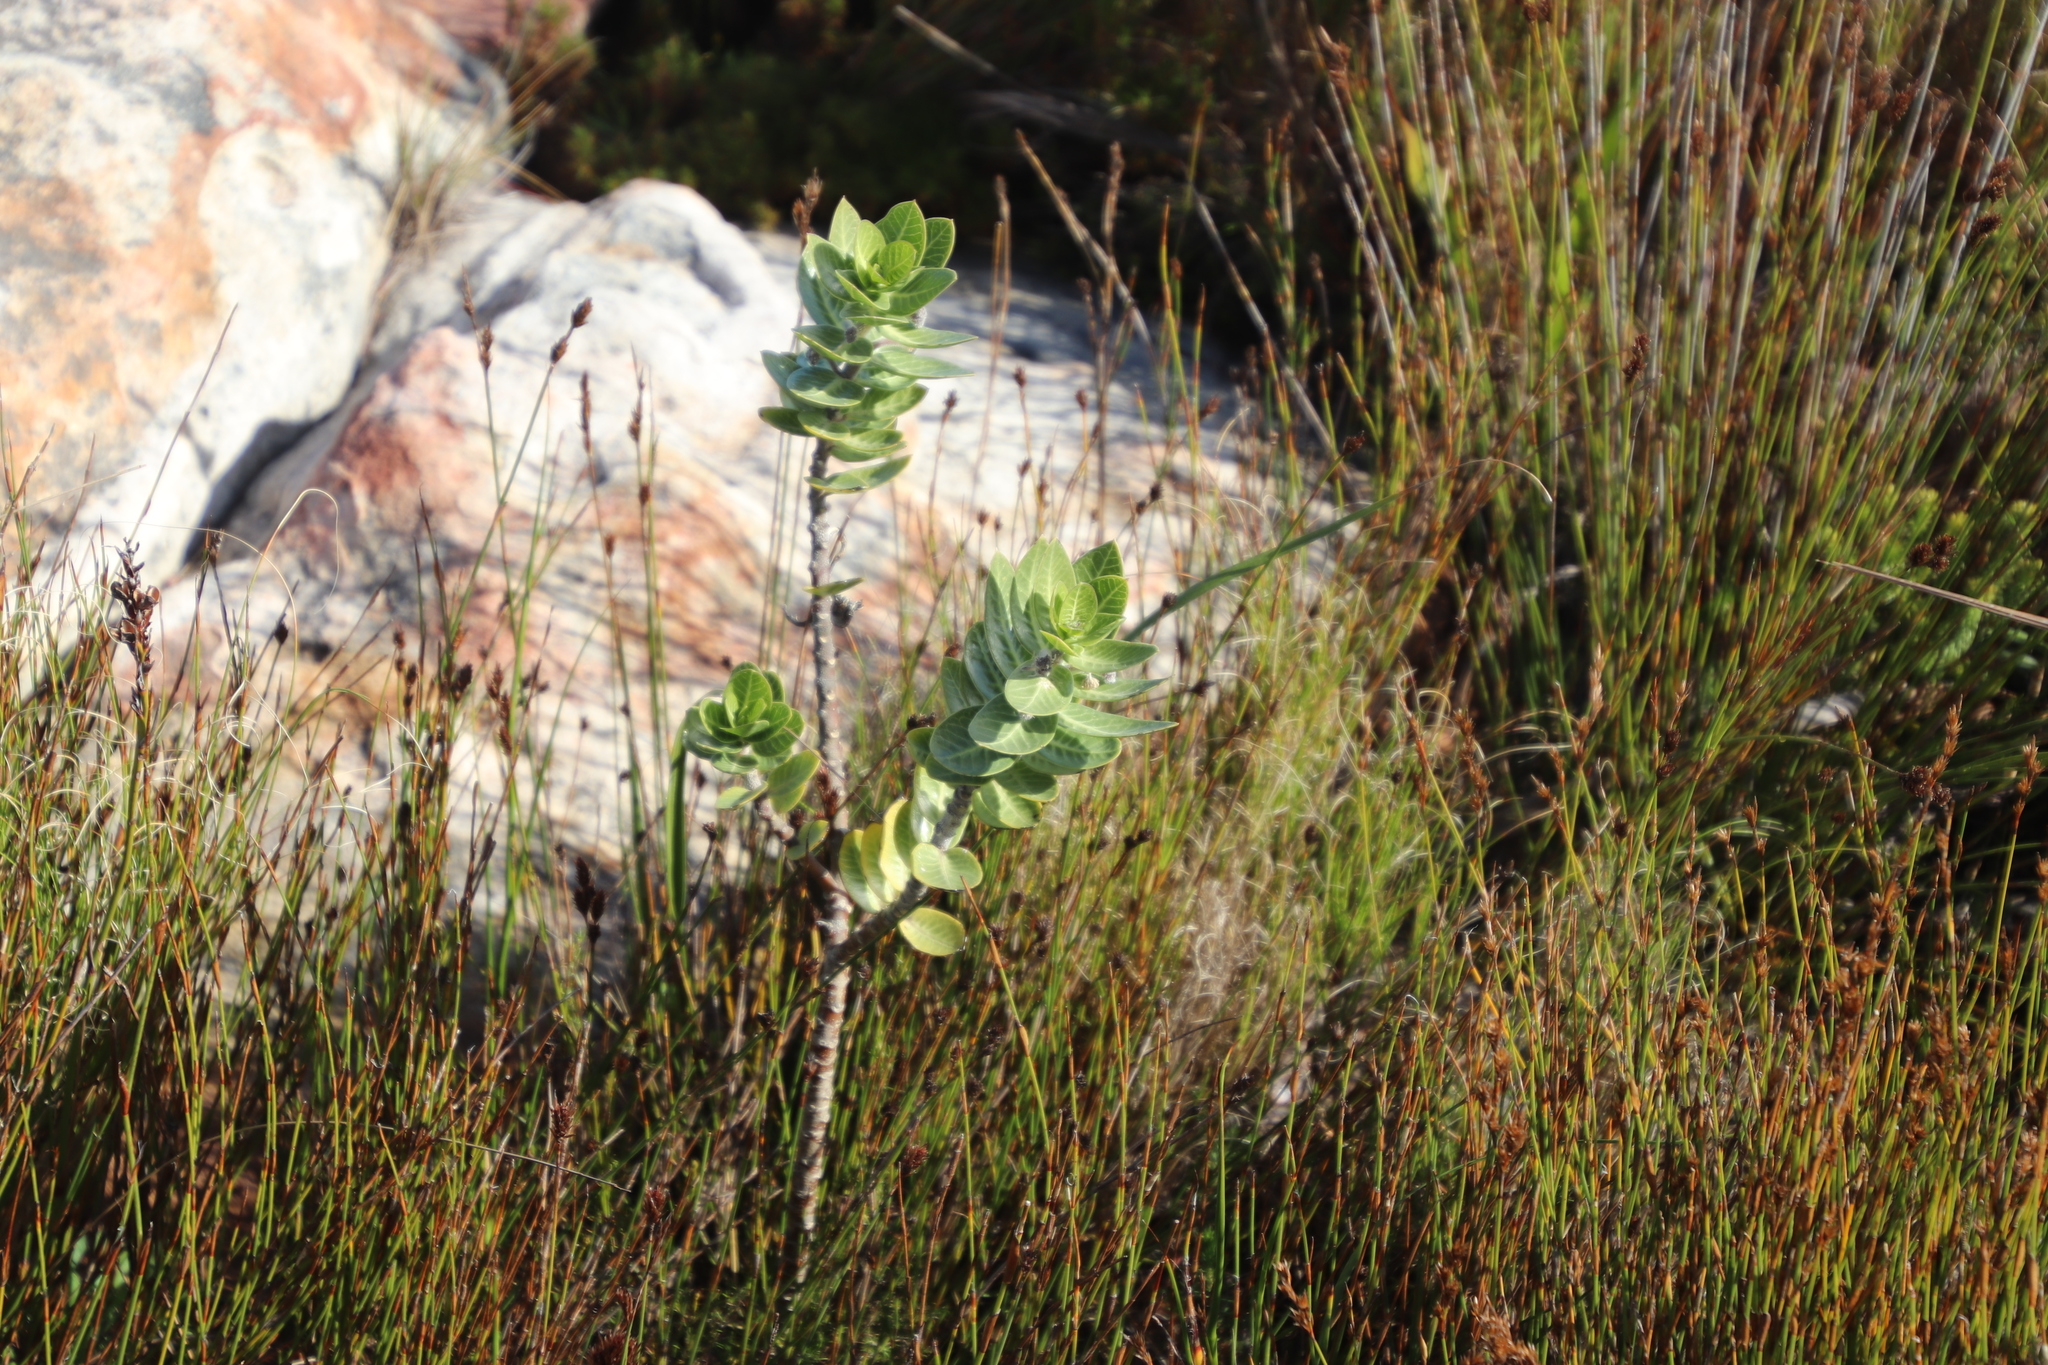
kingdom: Plantae
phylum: Tracheophyta
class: Magnoliopsida
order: Gentianales
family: Apocynaceae
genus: Gomphocarpus
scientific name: Gomphocarpus cancellatus
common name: Wild cotton
